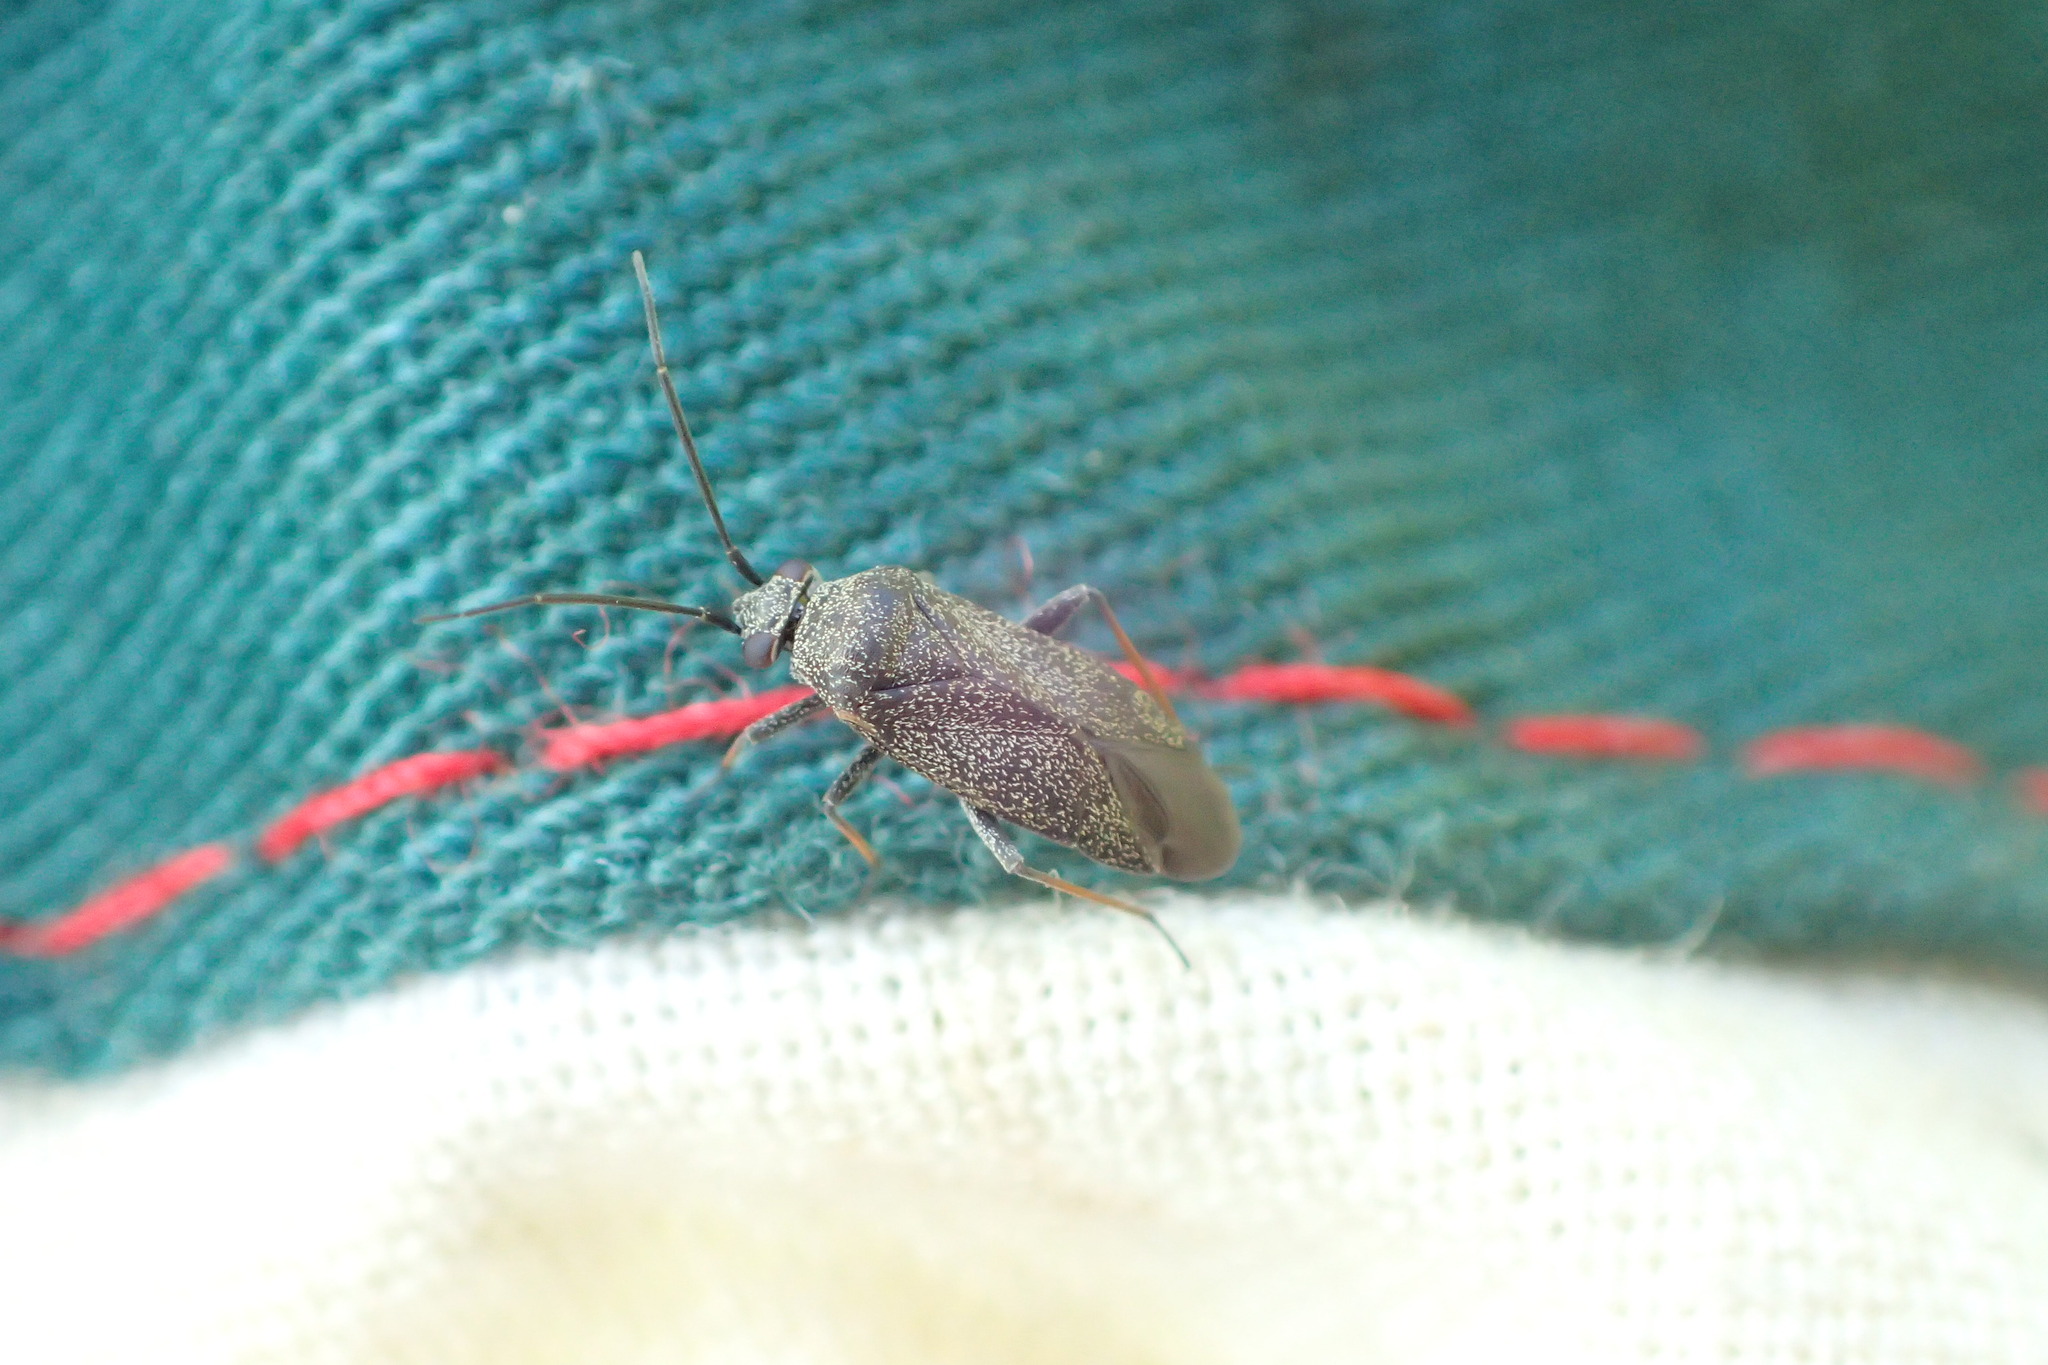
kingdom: Animalia
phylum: Arthropoda
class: Insecta
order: Hemiptera
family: Miridae
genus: Heterocordylus
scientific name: Heterocordylus tibialis
